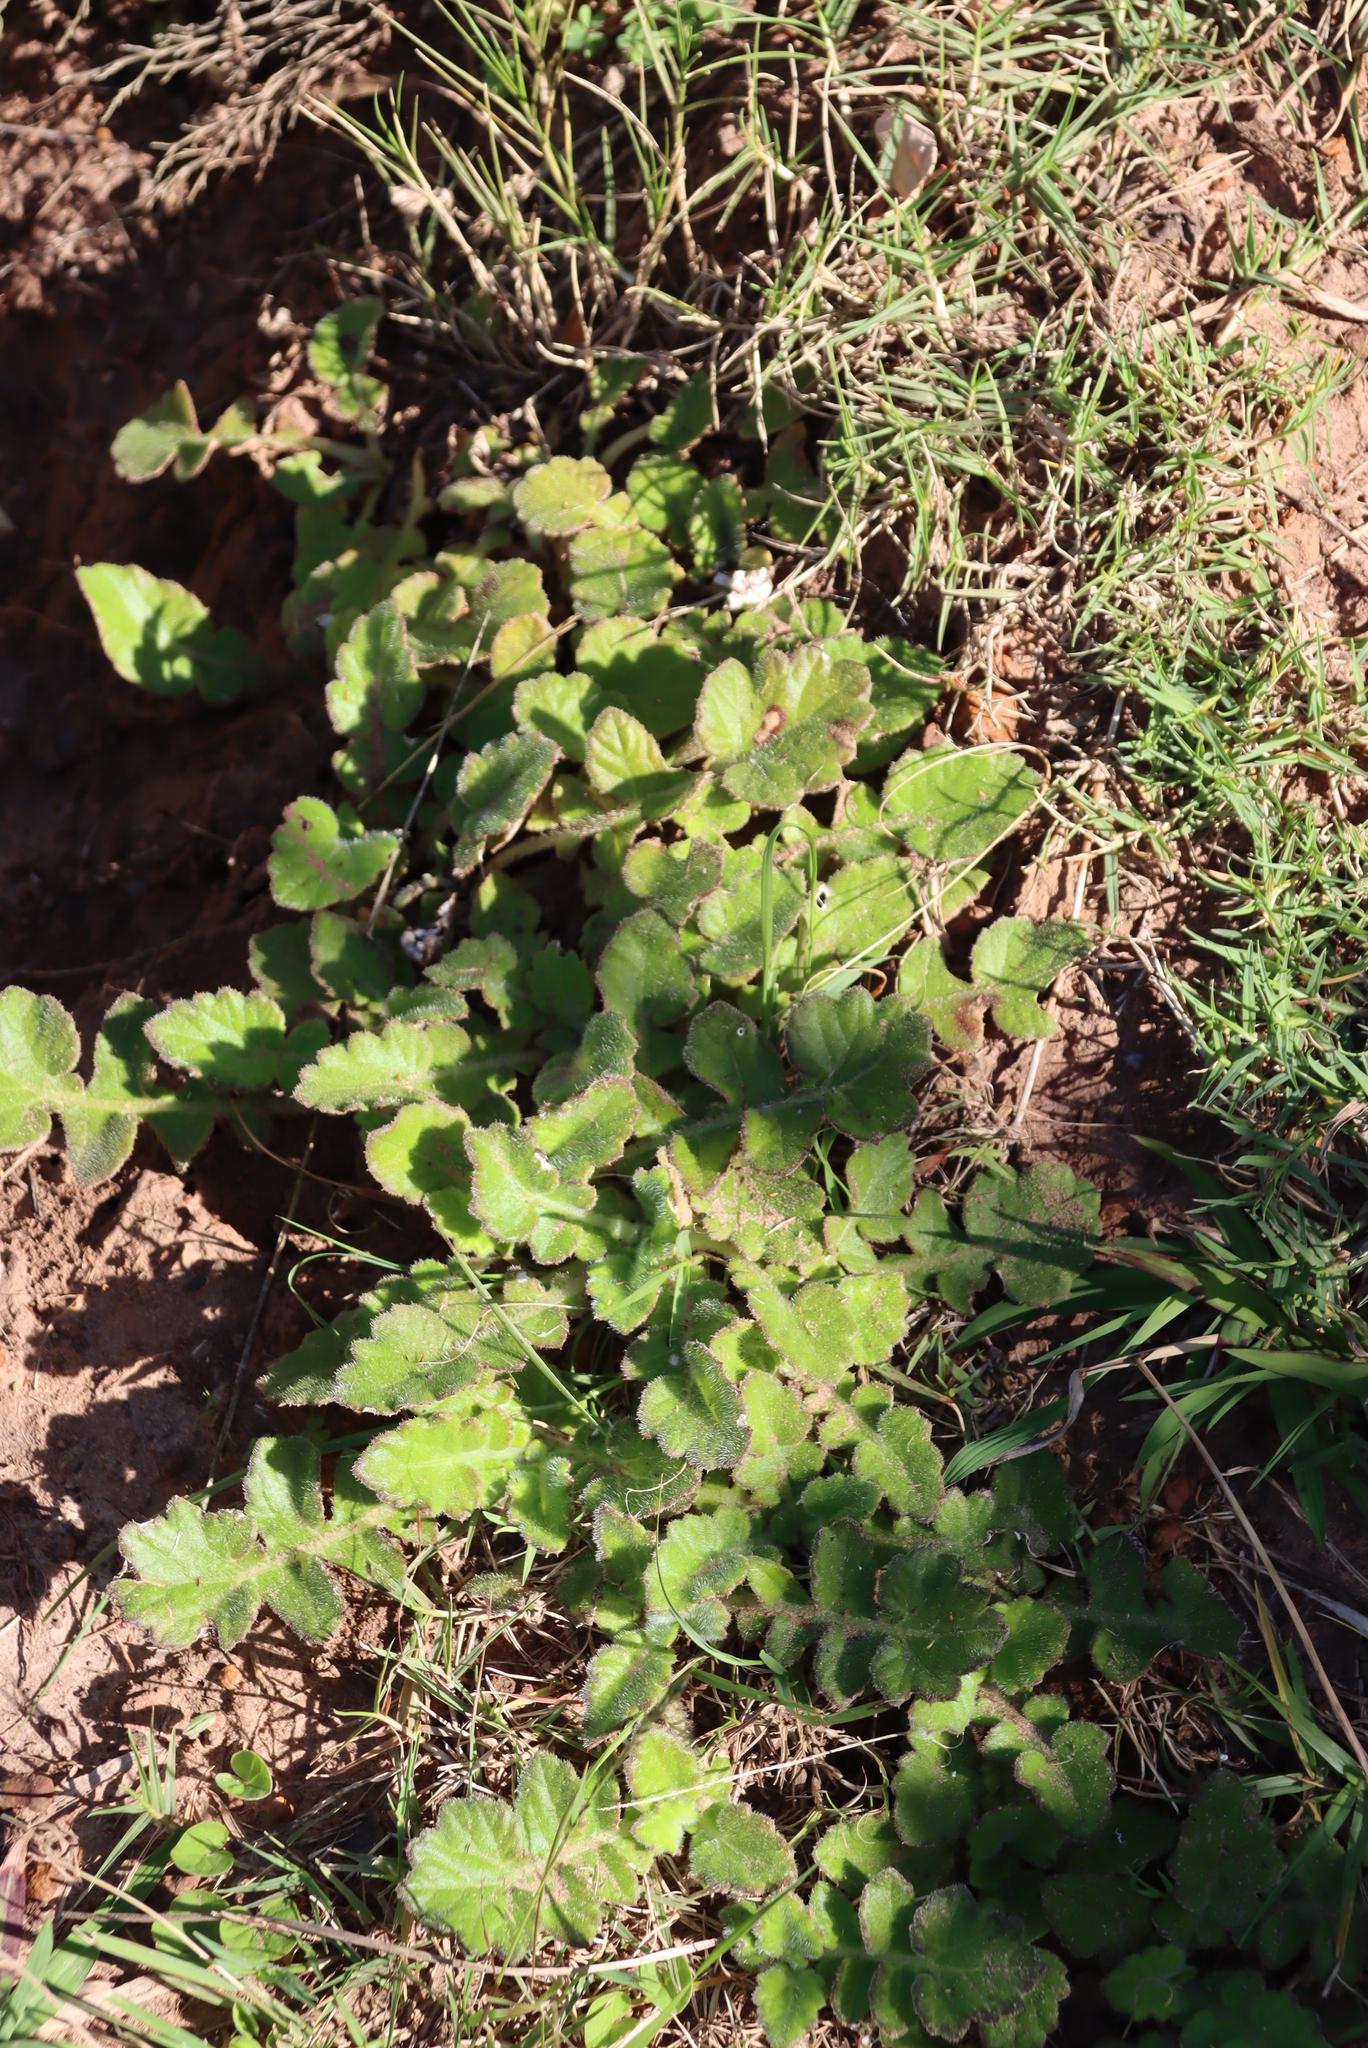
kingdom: Plantae
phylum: Tracheophyta
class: Magnoliopsida
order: Asterales
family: Asteraceae
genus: Arctotheca
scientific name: Arctotheca prostrata
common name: Capeweed
